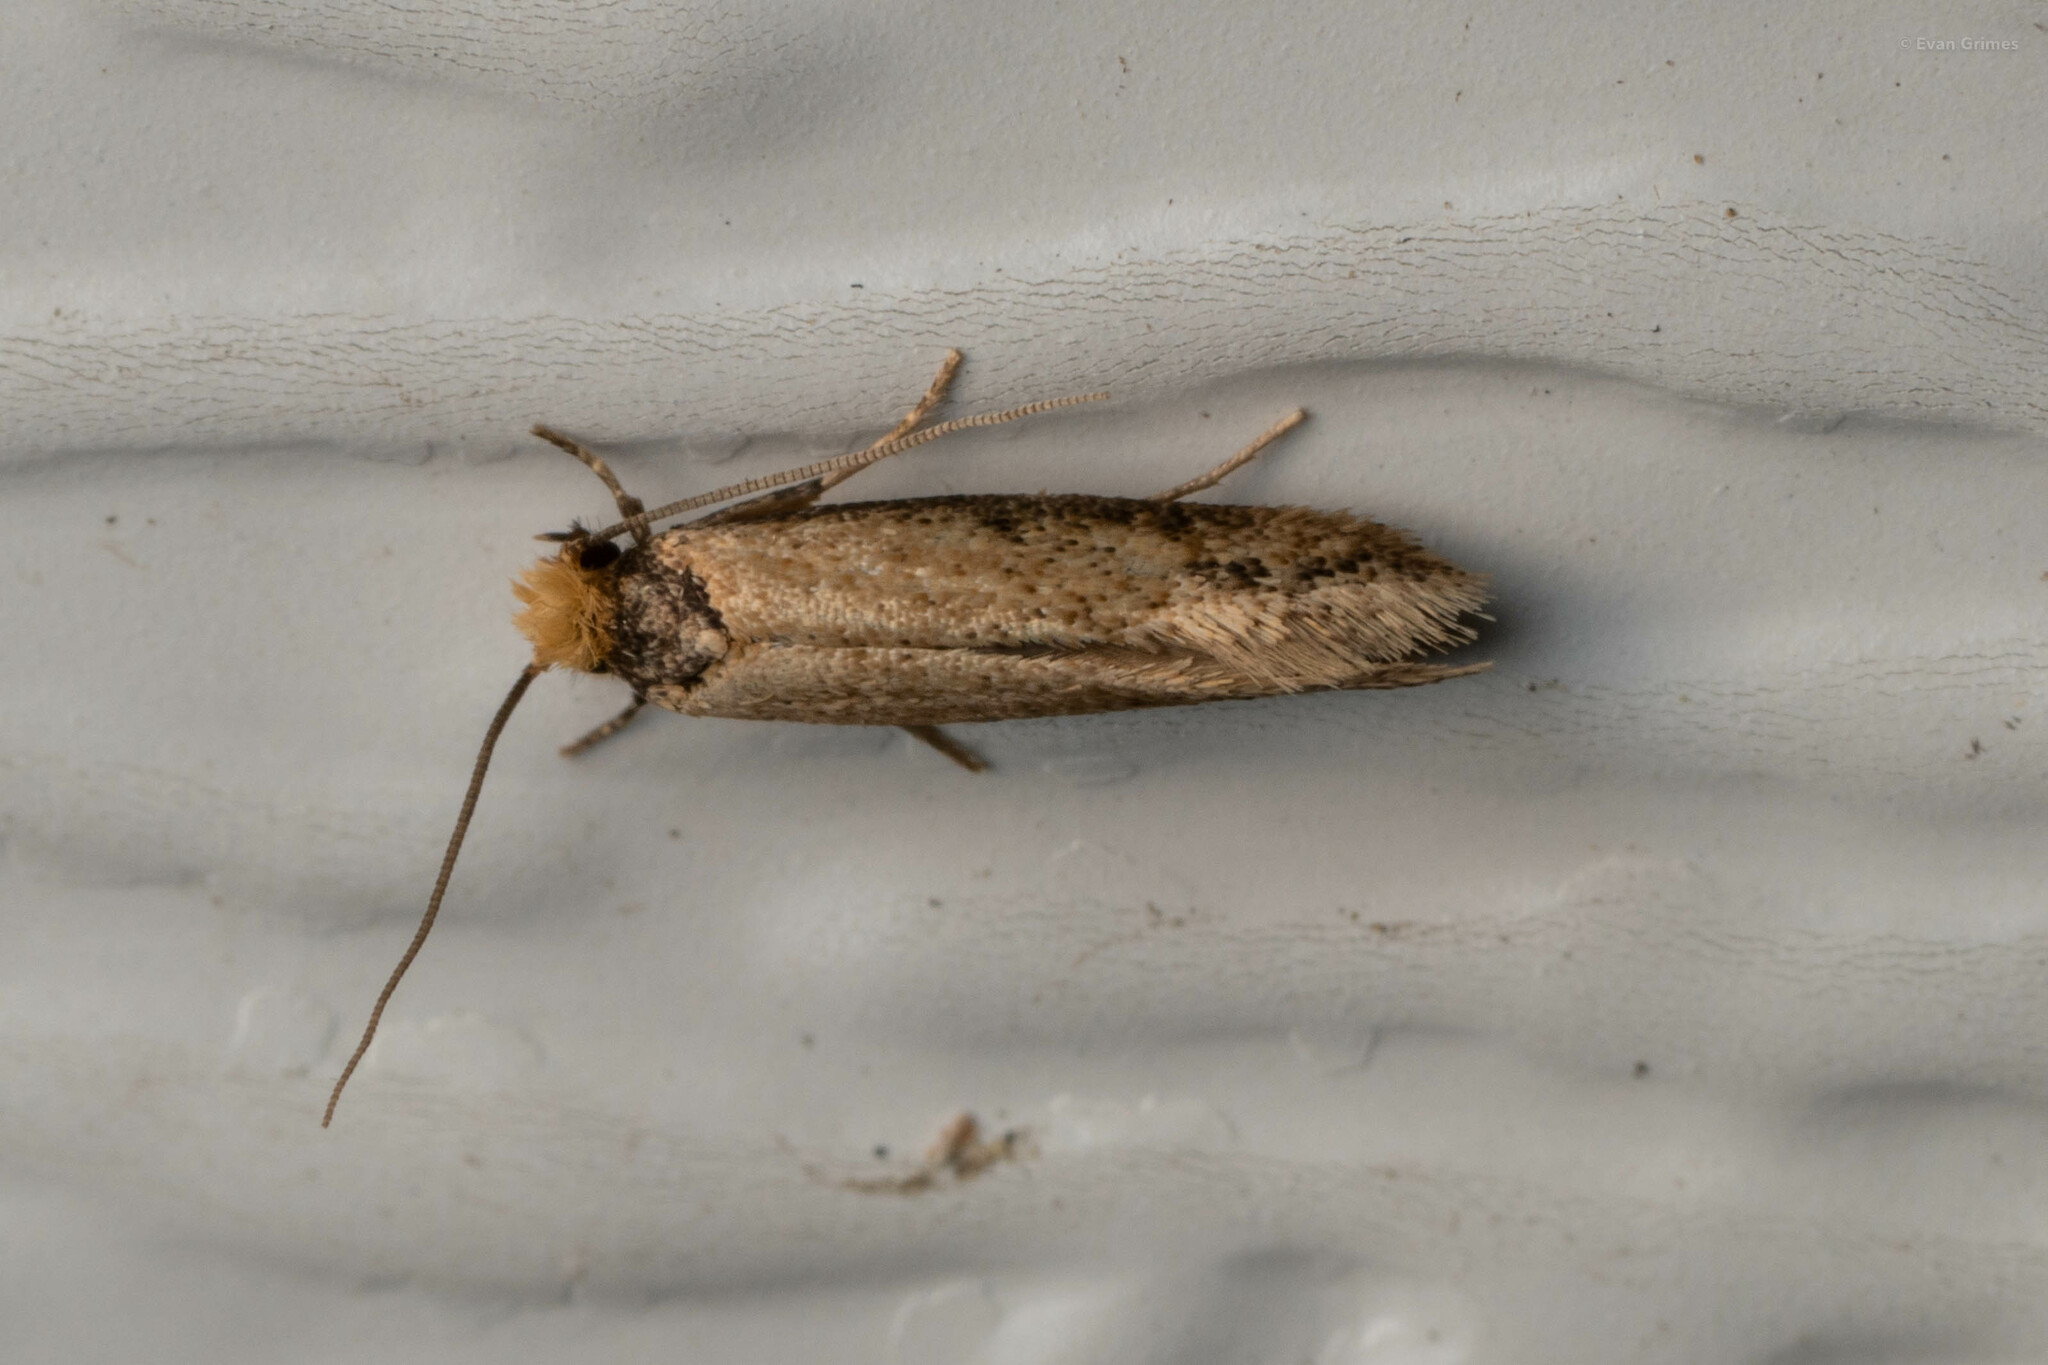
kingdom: Animalia
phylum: Arthropoda
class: Insecta
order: Lepidoptera
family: Meessiidae
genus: Homostinea
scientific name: Homostinea curviliniella
